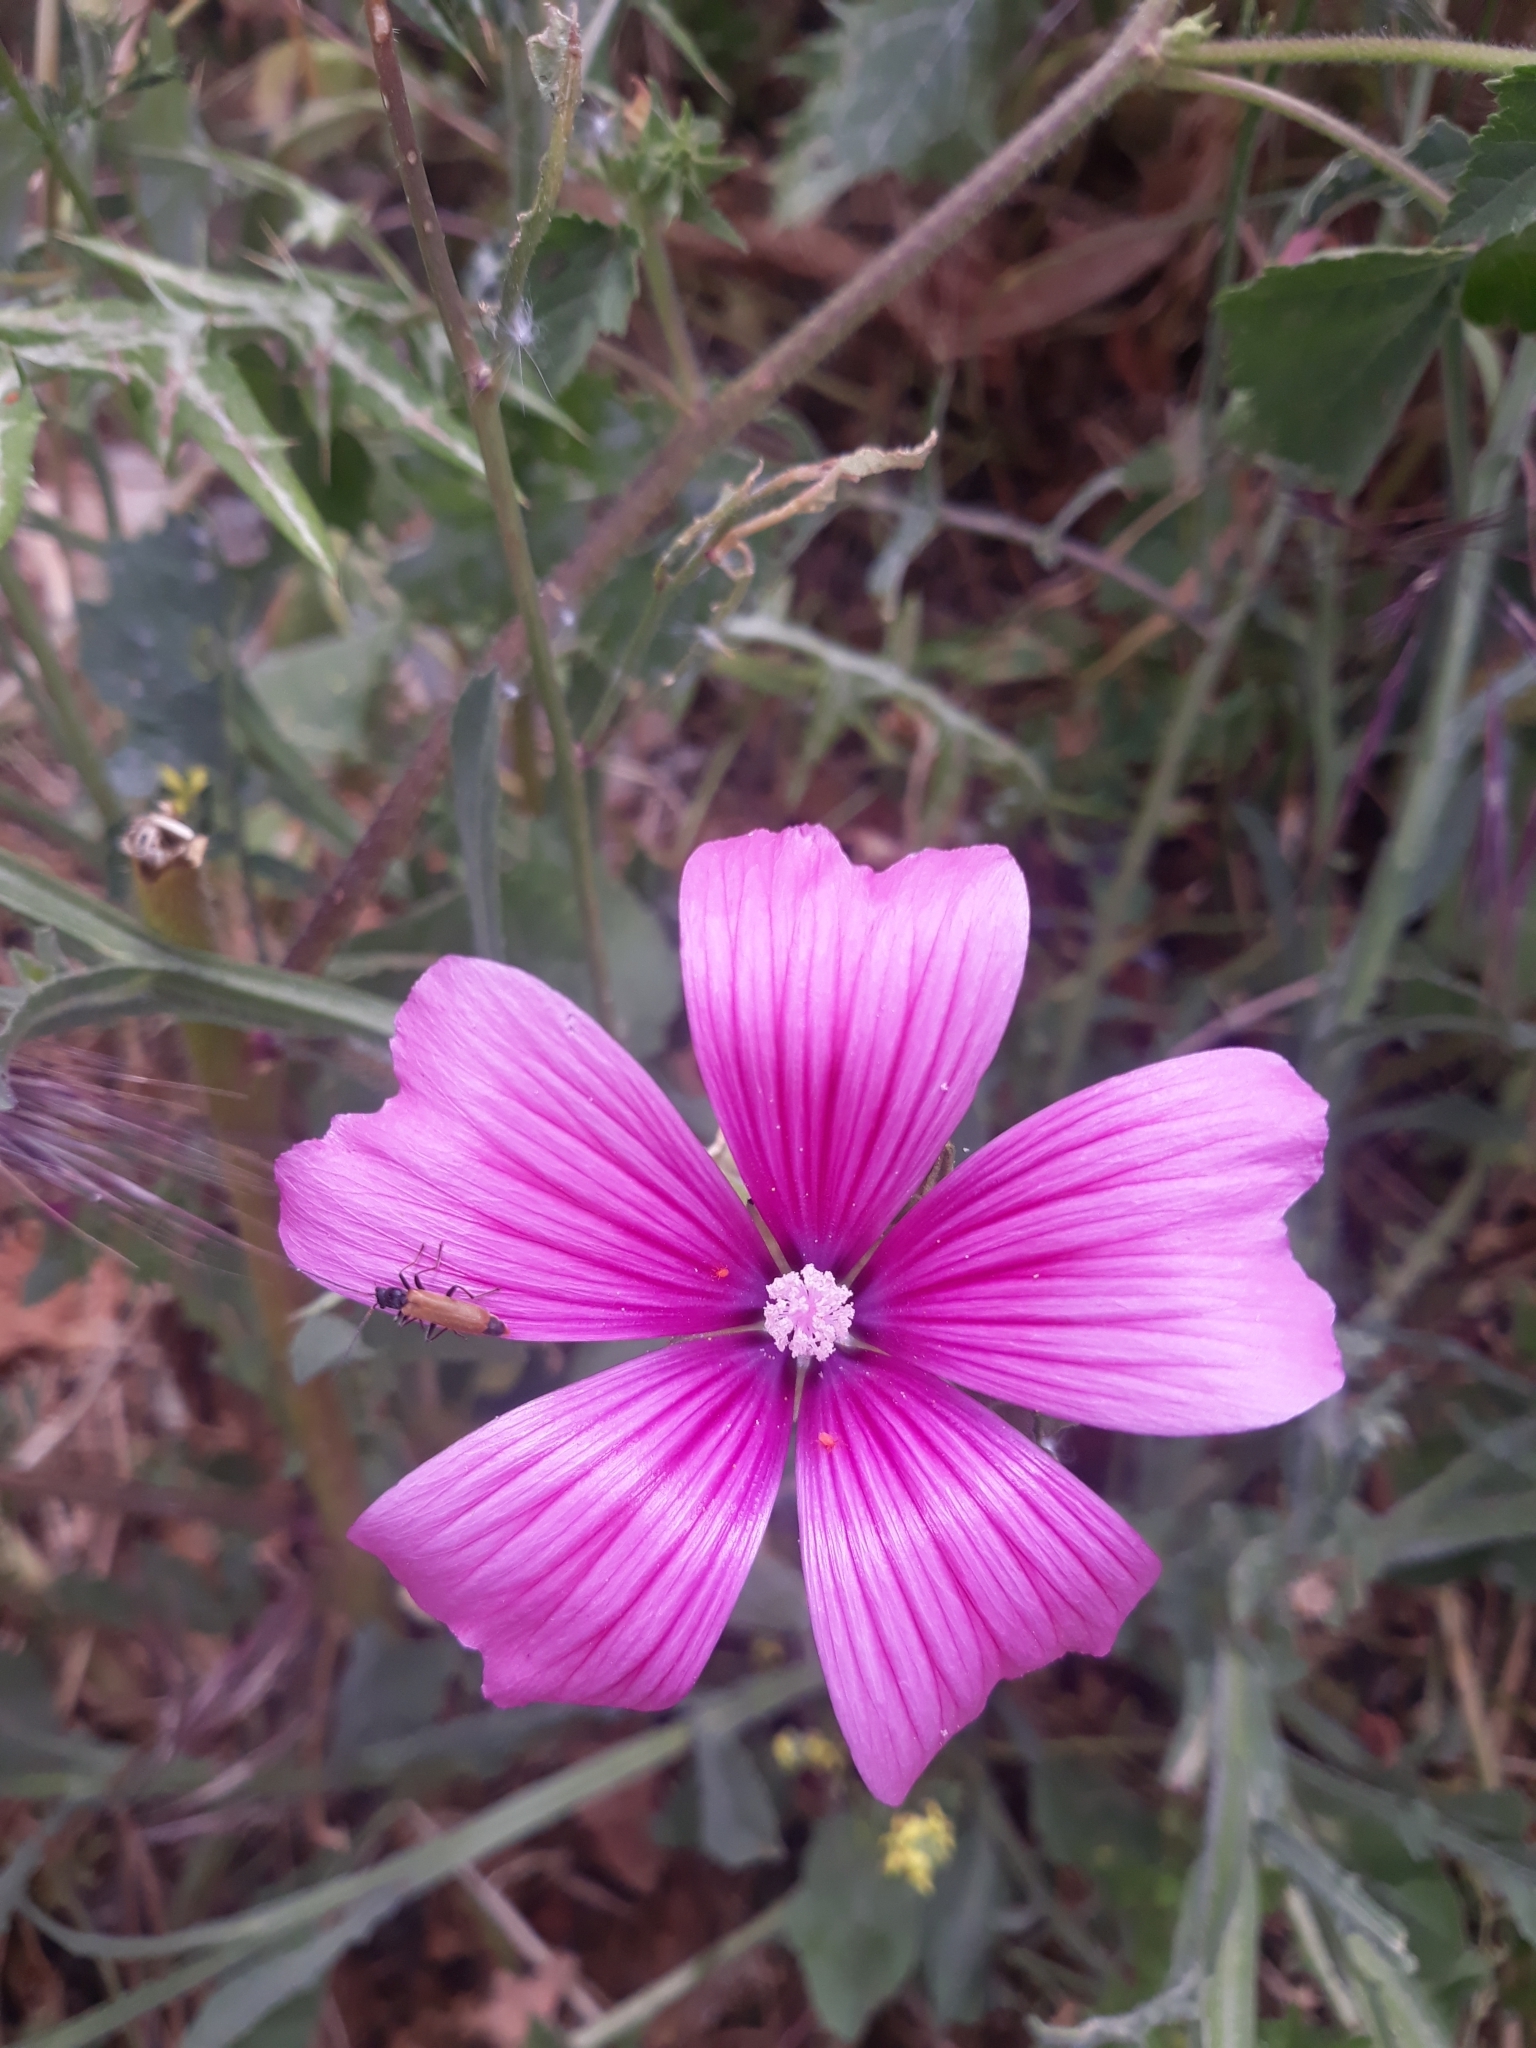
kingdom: Plantae
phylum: Tracheophyta
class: Magnoliopsida
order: Malvales
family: Malvaceae
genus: Malva
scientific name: Malva trimestris
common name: Royal mallow
